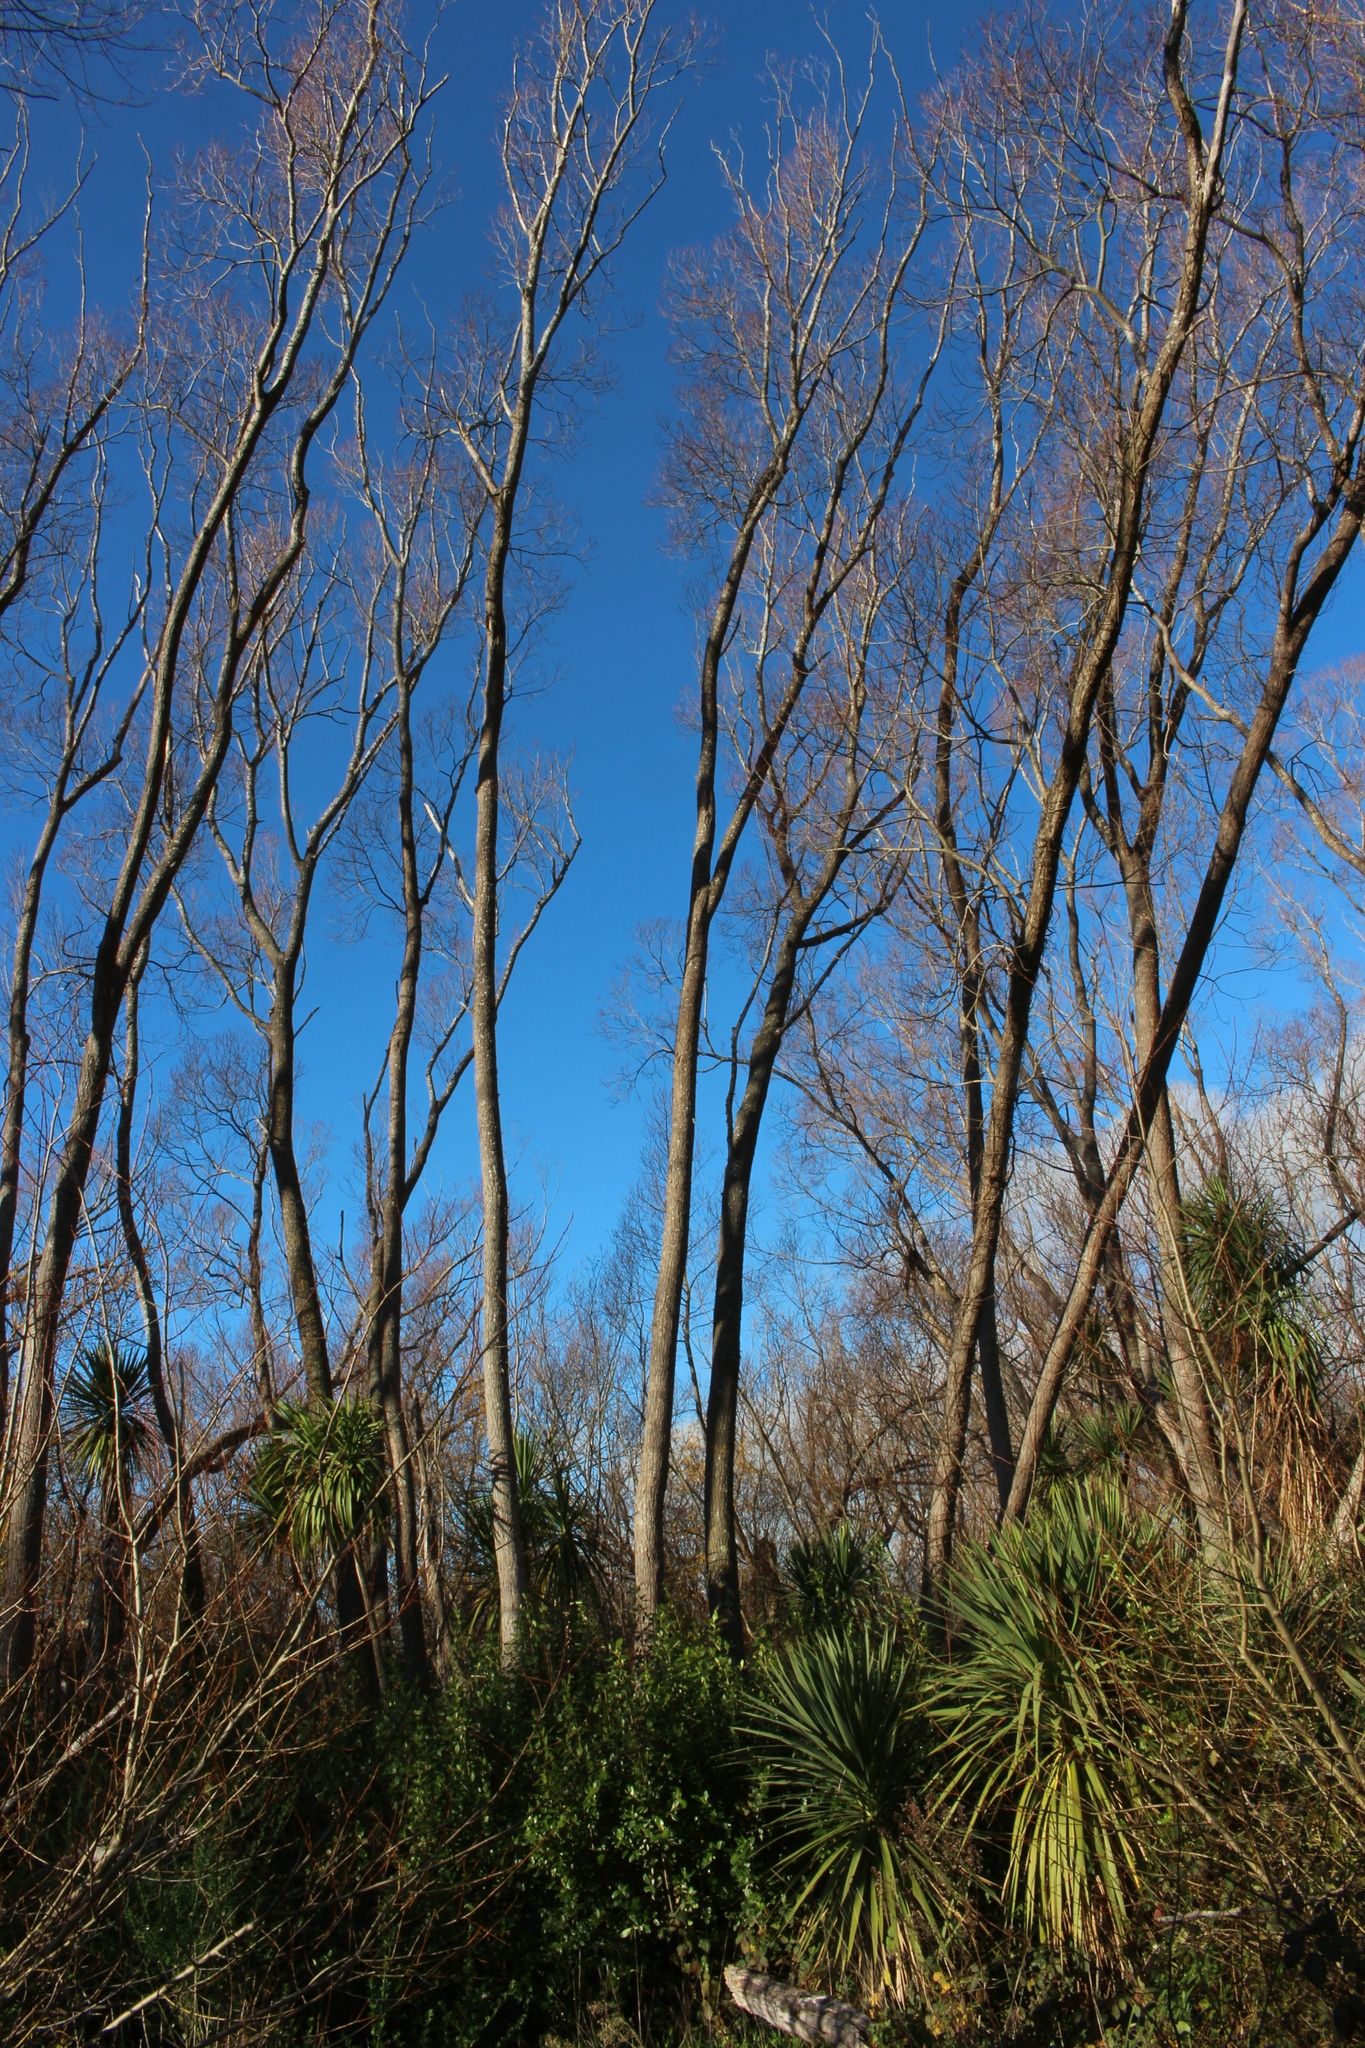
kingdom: Plantae
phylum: Tracheophyta
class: Magnoliopsida
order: Fabales
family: Fabaceae
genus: Chamaecytisus
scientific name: Chamaecytisus prolifer
